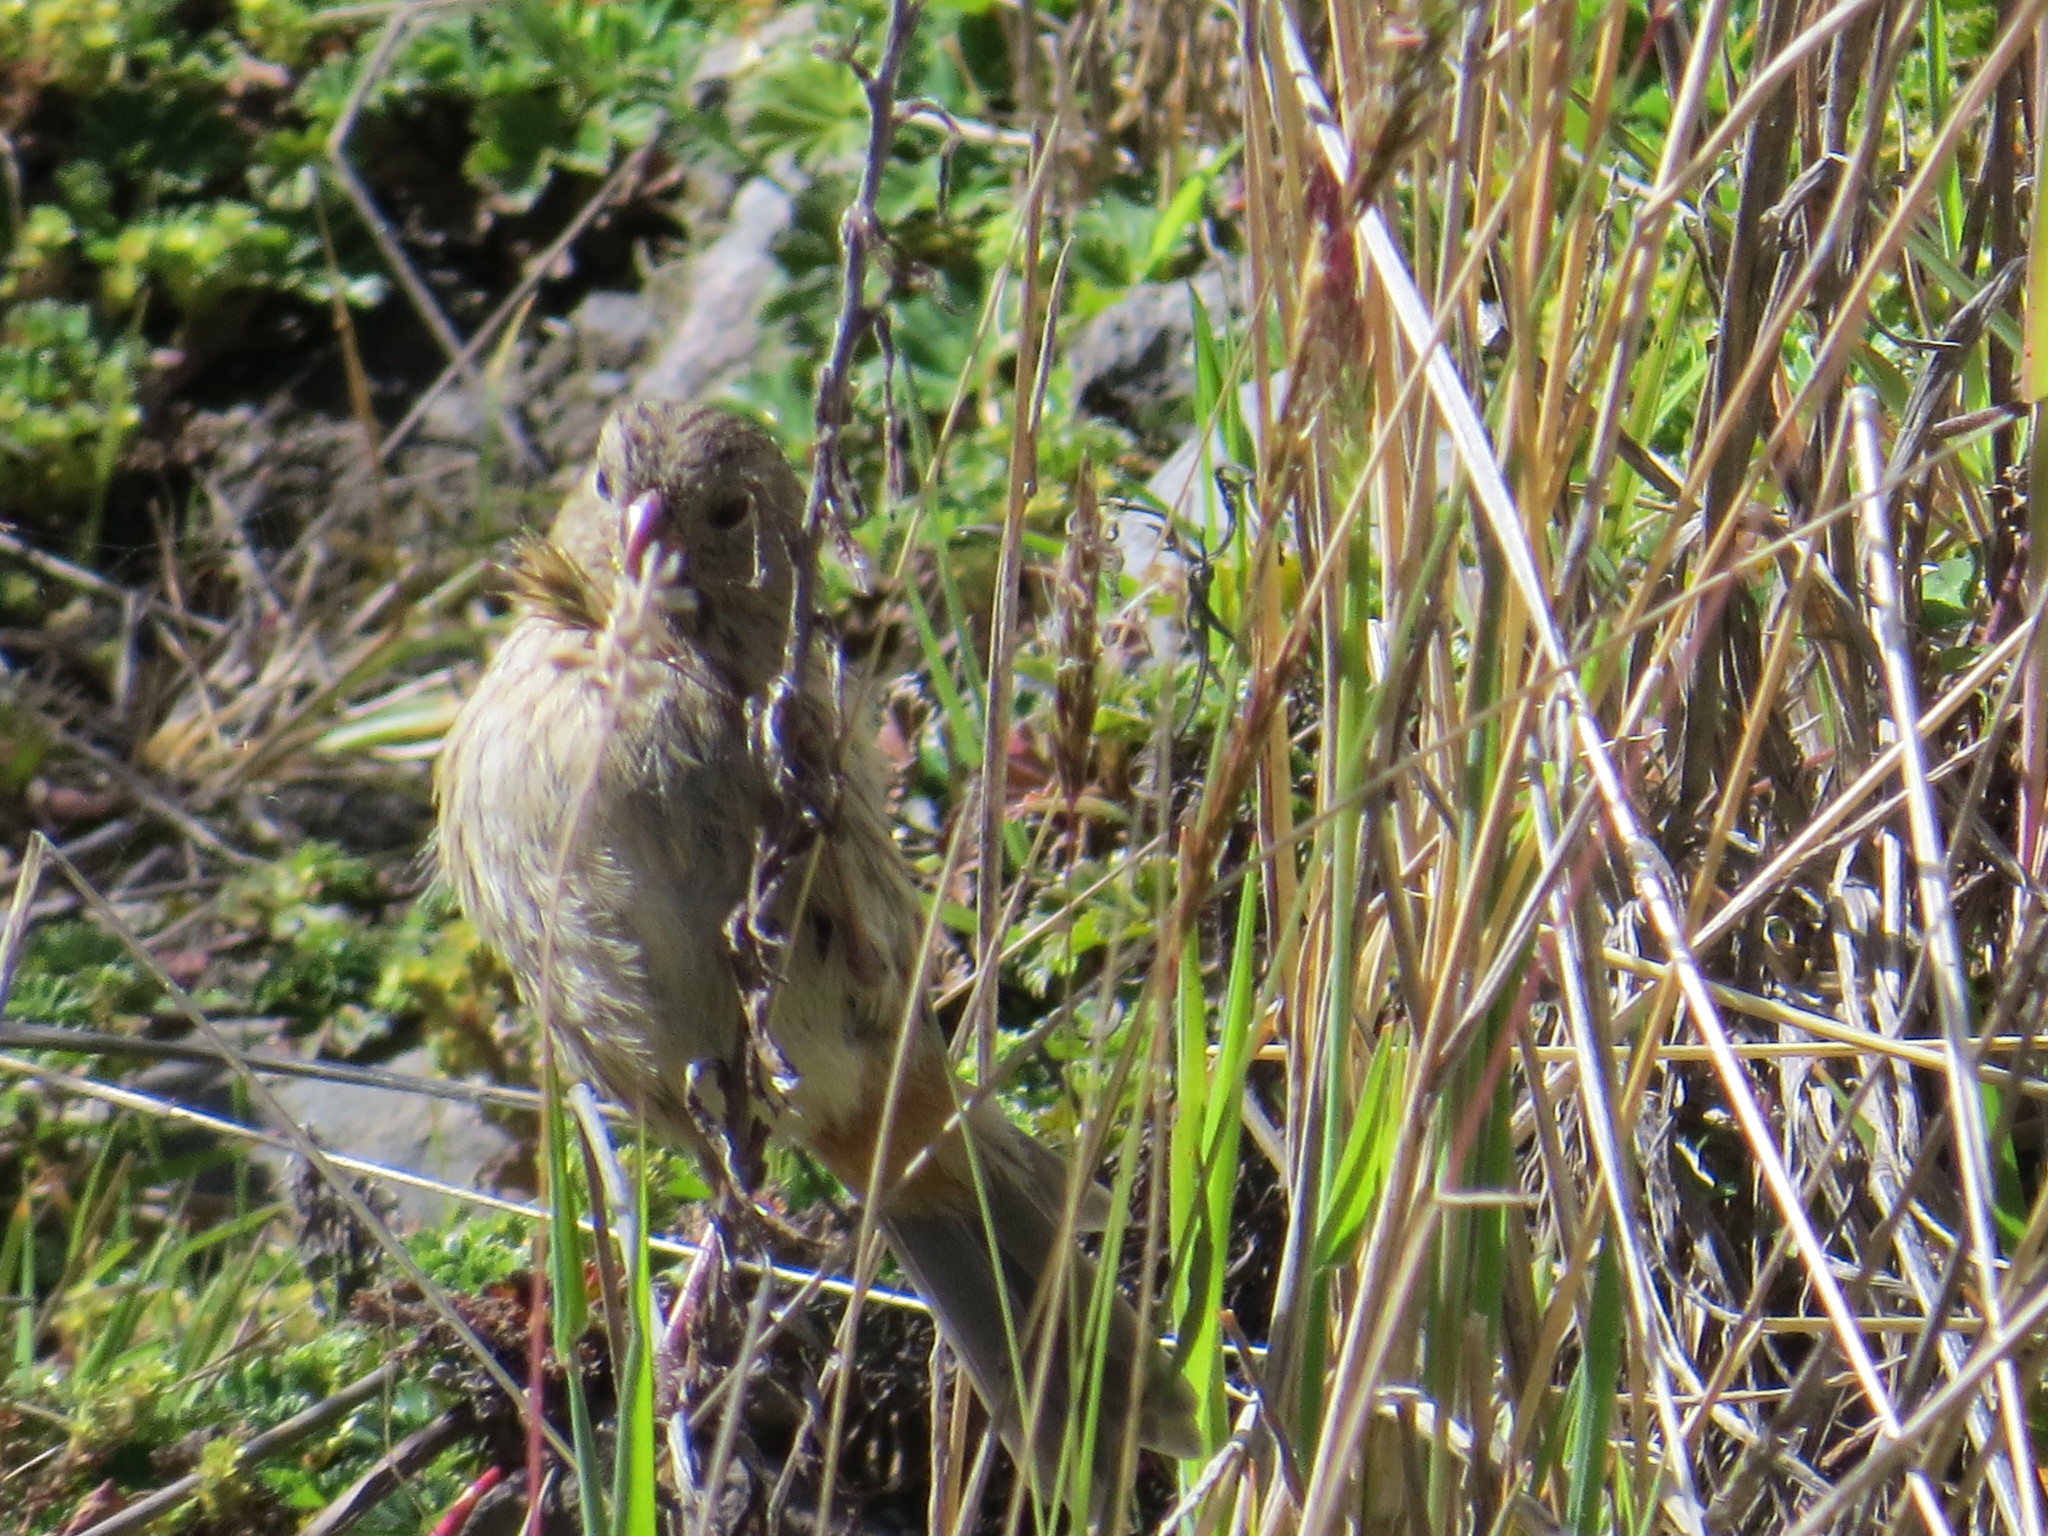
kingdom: Animalia
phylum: Chordata
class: Aves
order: Passeriformes
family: Thraupidae
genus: Catamenia
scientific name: Catamenia inornata
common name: Plain-colored seedeater
